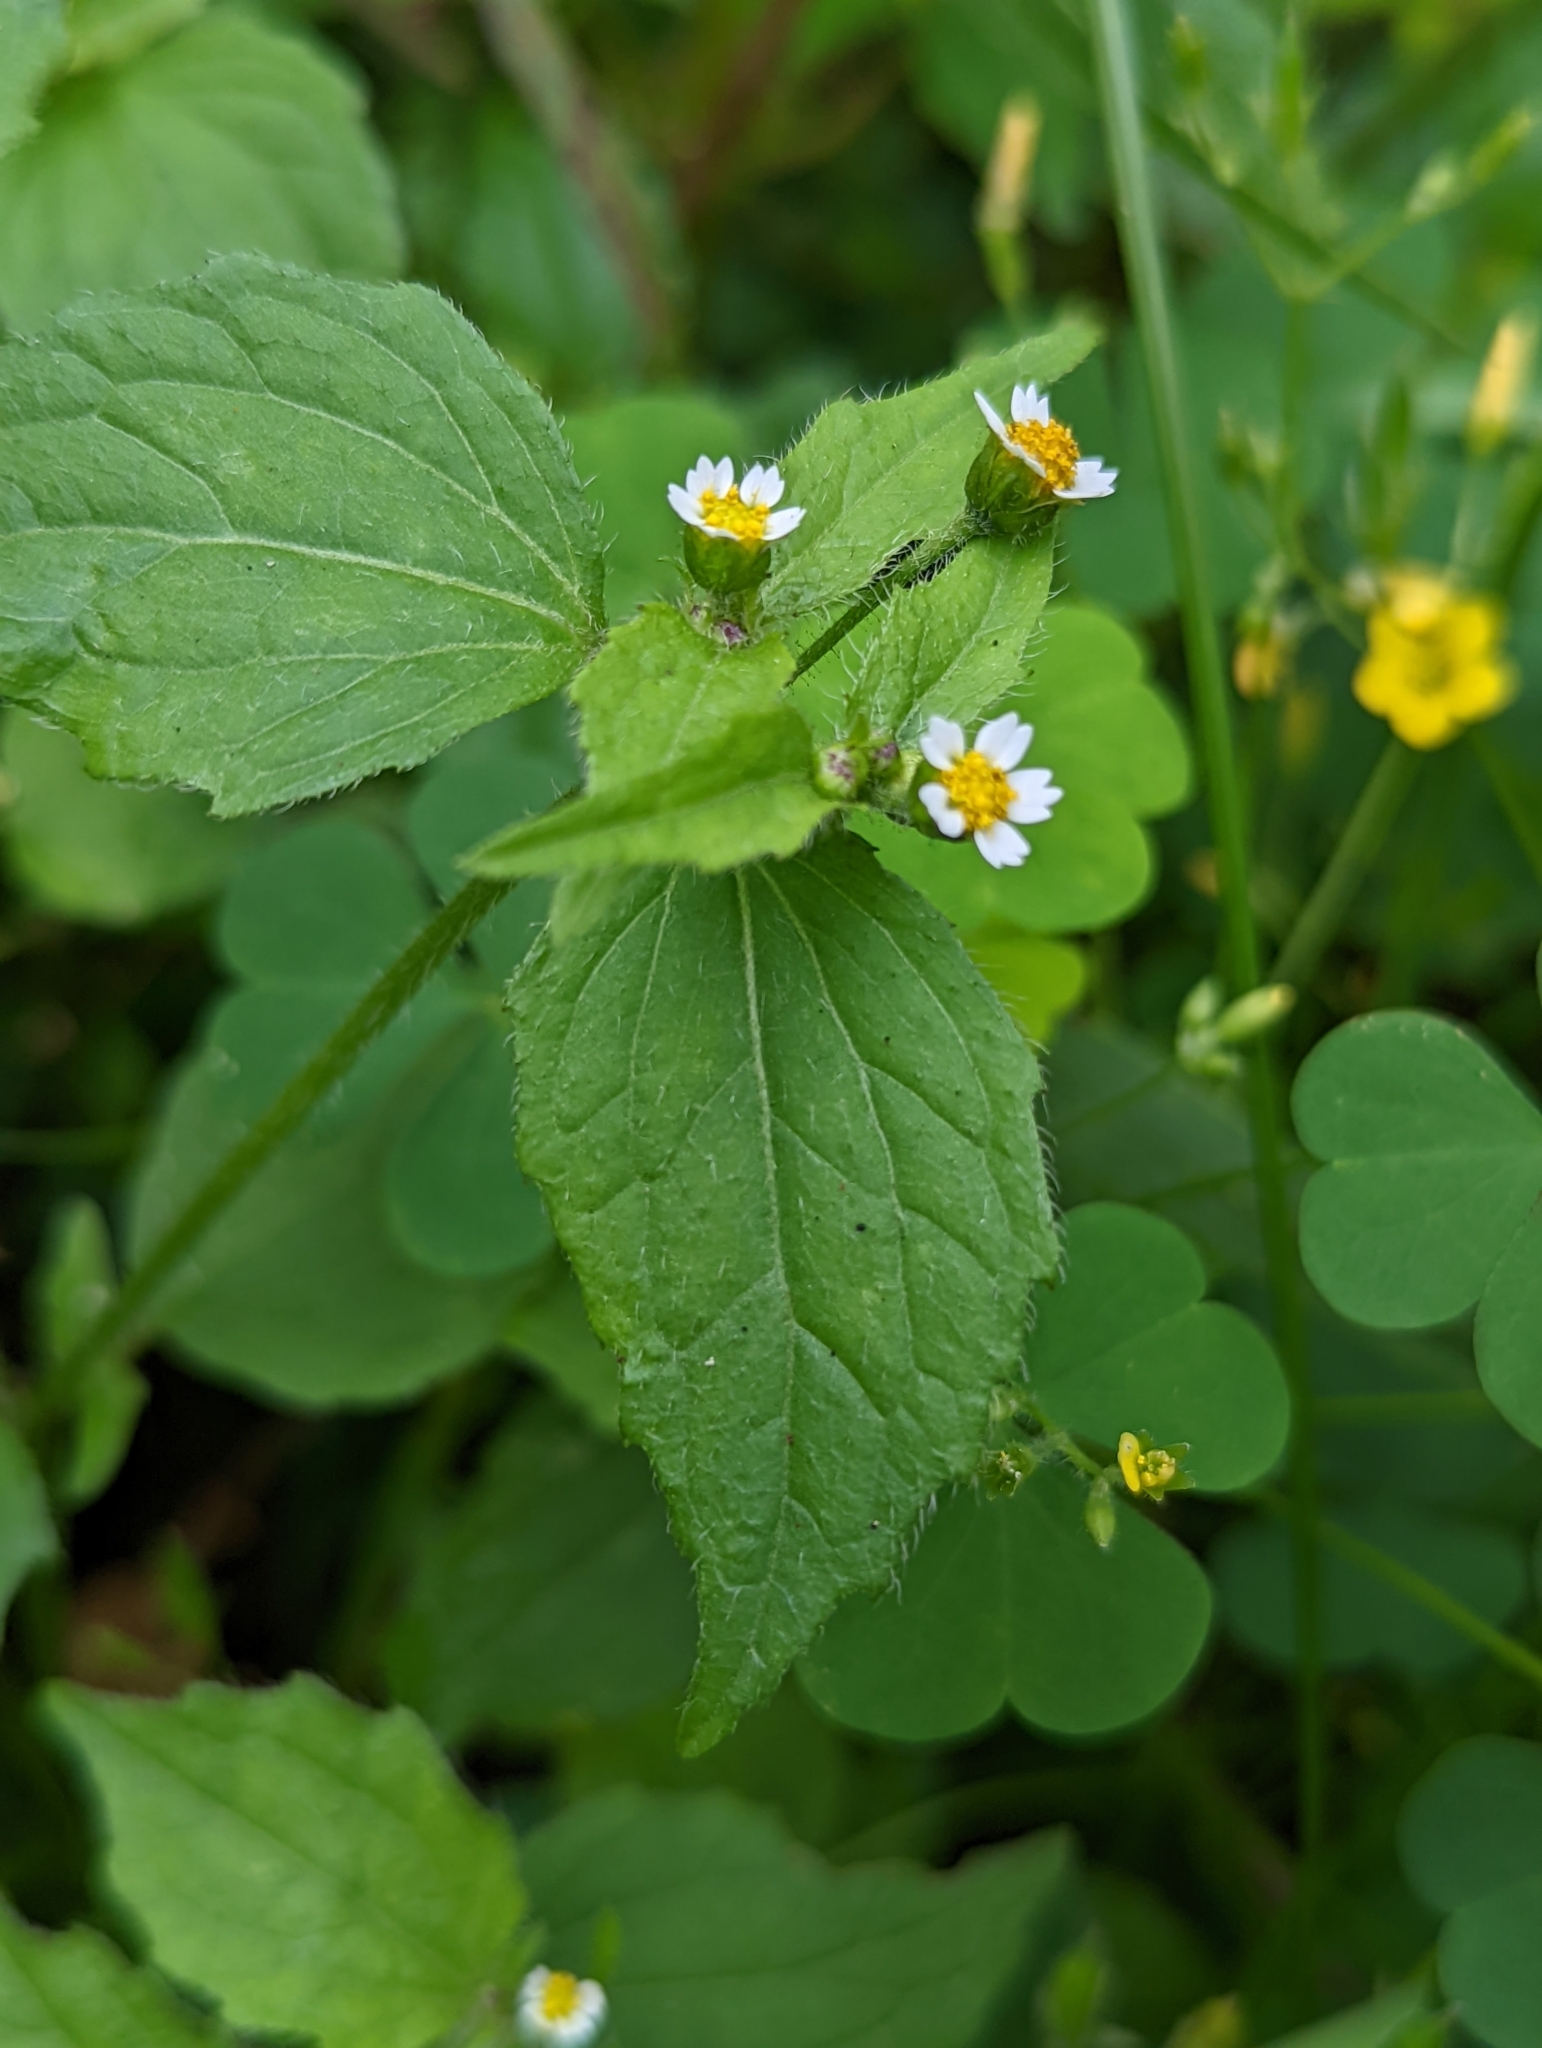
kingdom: Plantae
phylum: Tracheophyta
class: Magnoliopsida
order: Asterales
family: Asteraceae
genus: Galinsoga
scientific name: Galinsoga quadriradiata
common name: Shaggy soldier
